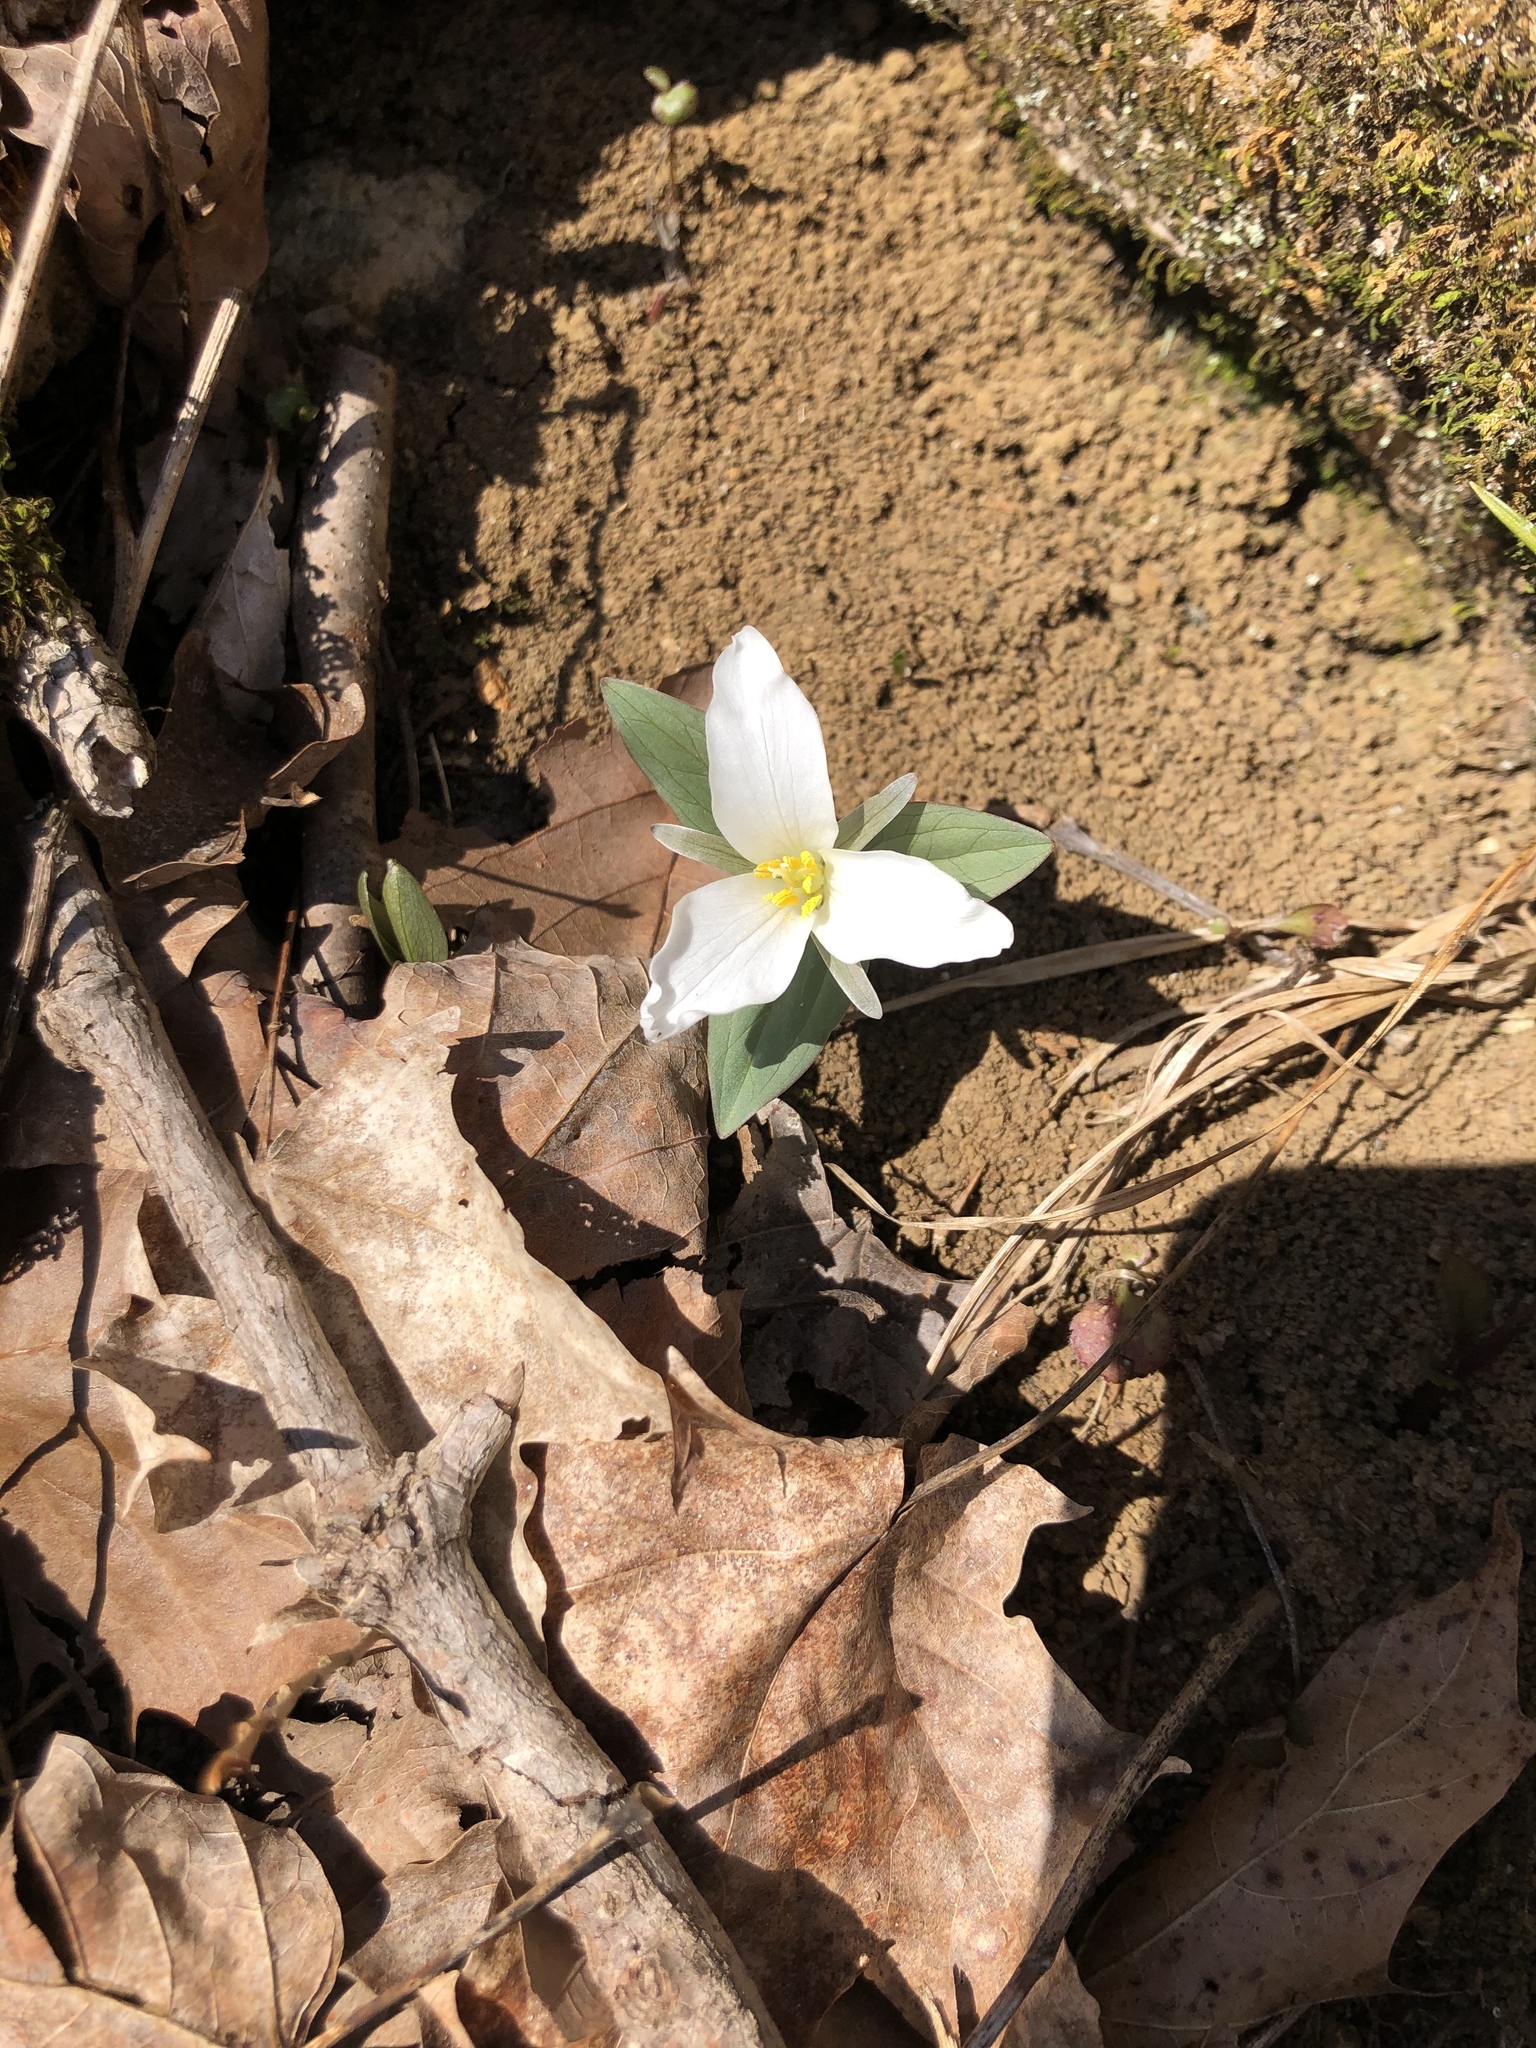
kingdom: Plantae
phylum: Tracheophyta
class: Liliopsida
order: Liliales
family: Melanthiaceae
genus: Trillium
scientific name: Trillium nivale
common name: Dwarf white trillium
